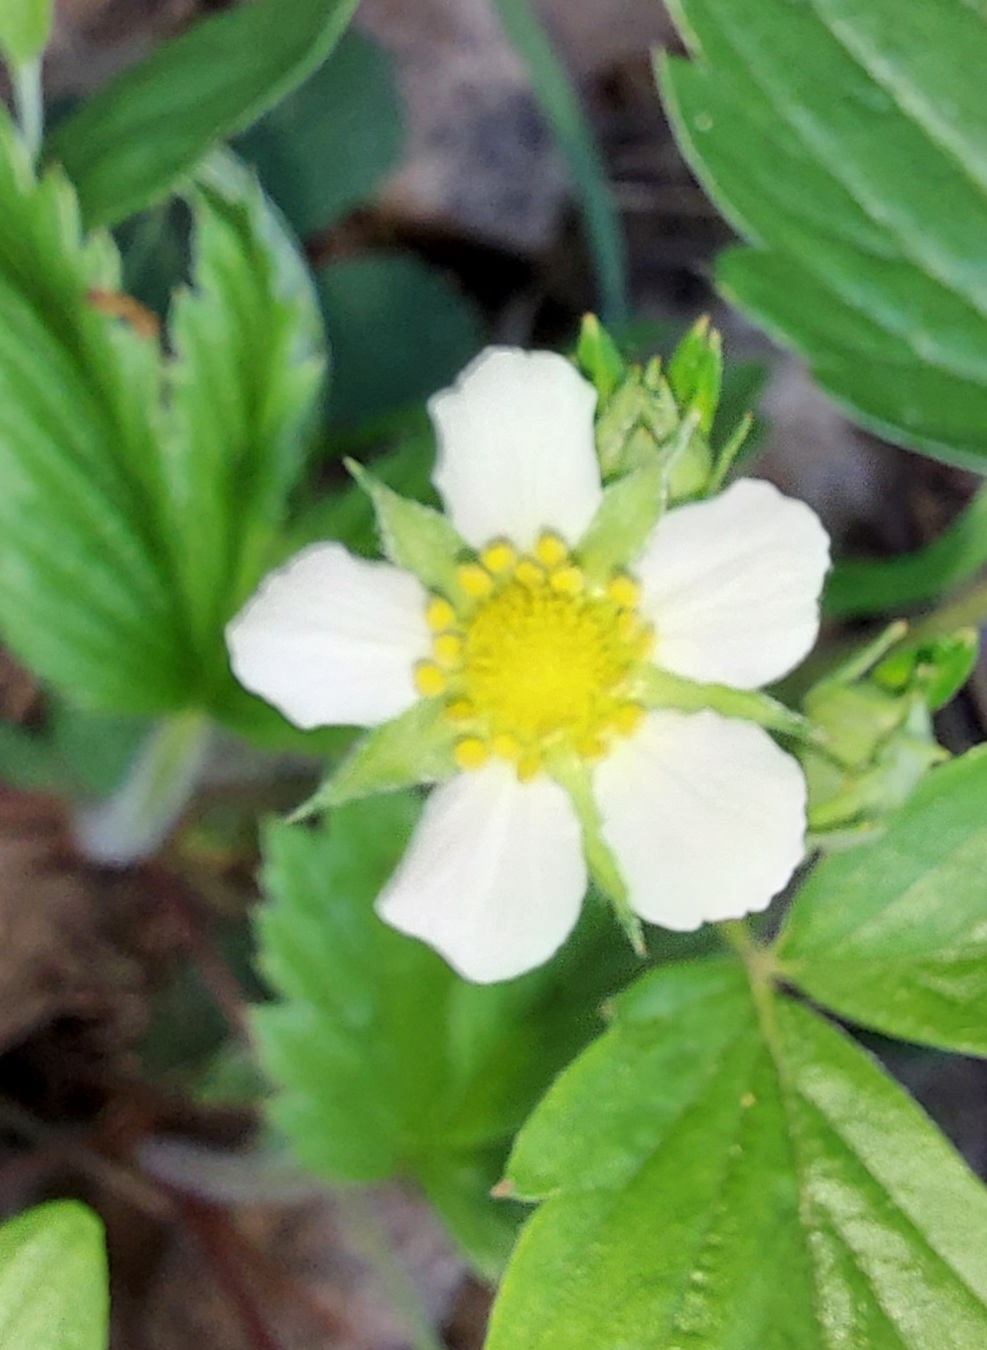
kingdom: Plantae
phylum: Tracheophyta
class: Magnoliopsida
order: Rosales
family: Rosaceae
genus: Fragaria
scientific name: Fragaria vesca
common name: Wild strawberry
